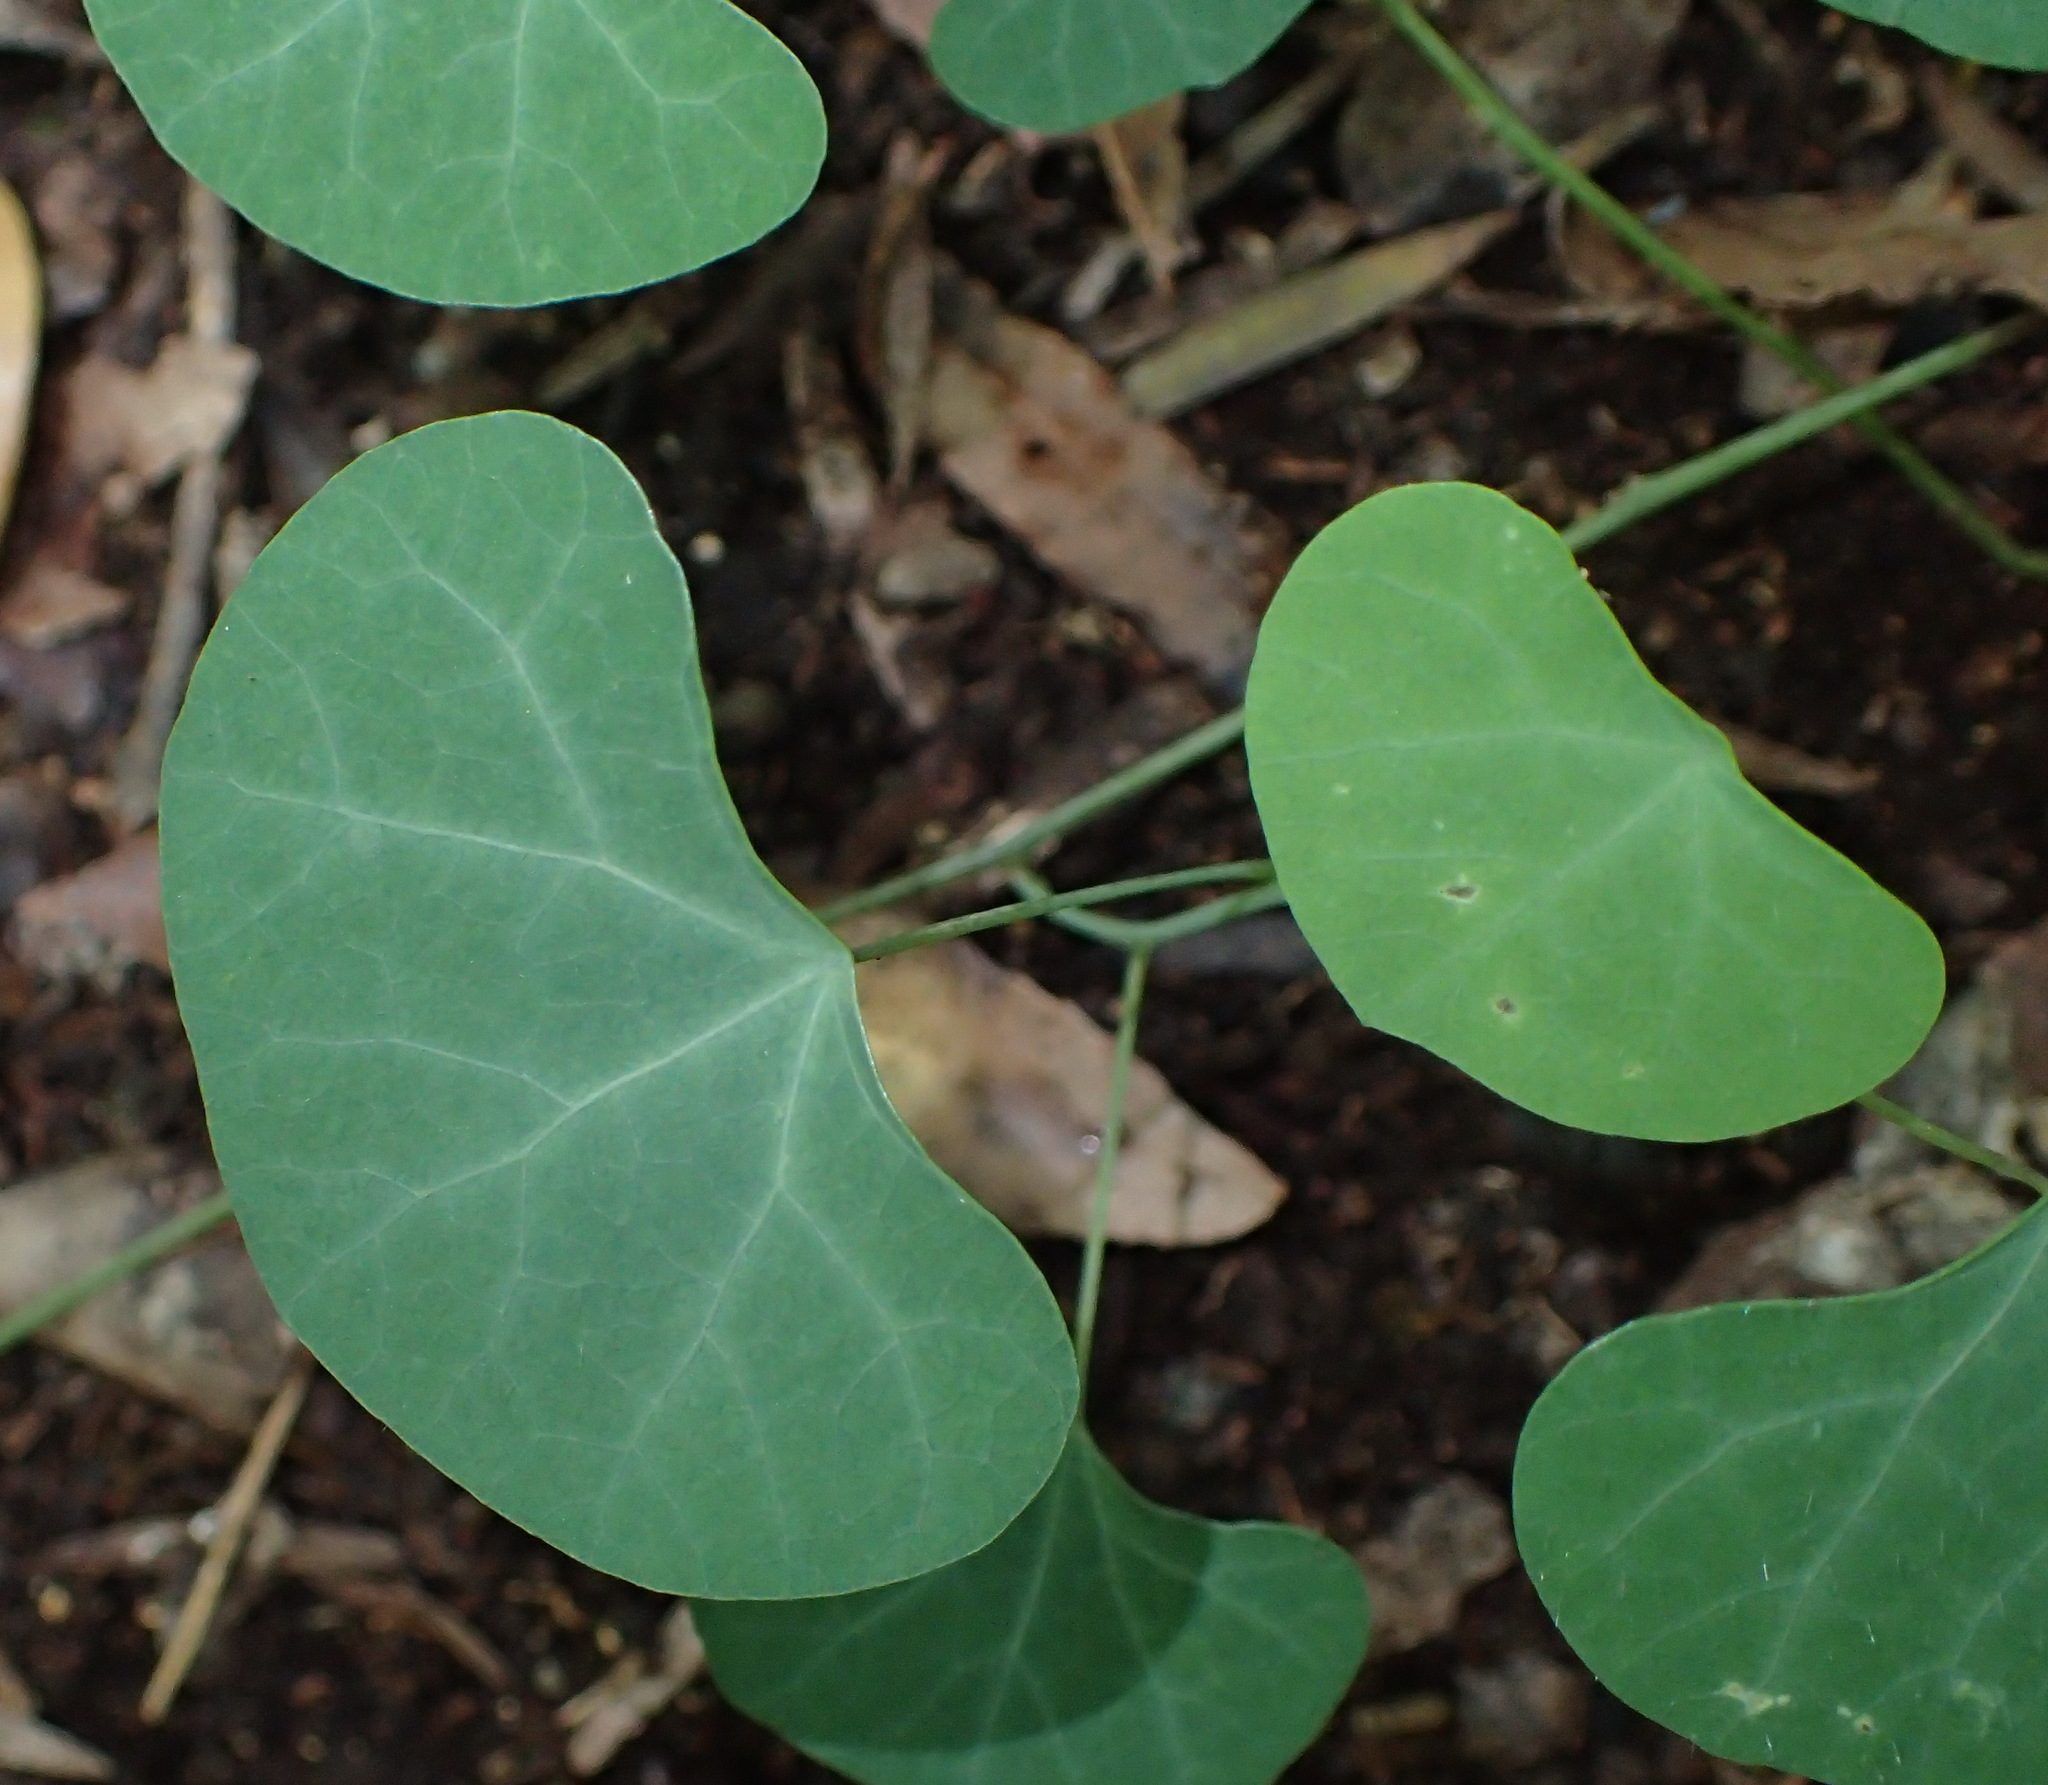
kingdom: Plantae
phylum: Tracheophyta
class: Magnoliopsida
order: Ranunculales
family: Menispermaceae
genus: Cissampelos
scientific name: Cissampelos torulosa
